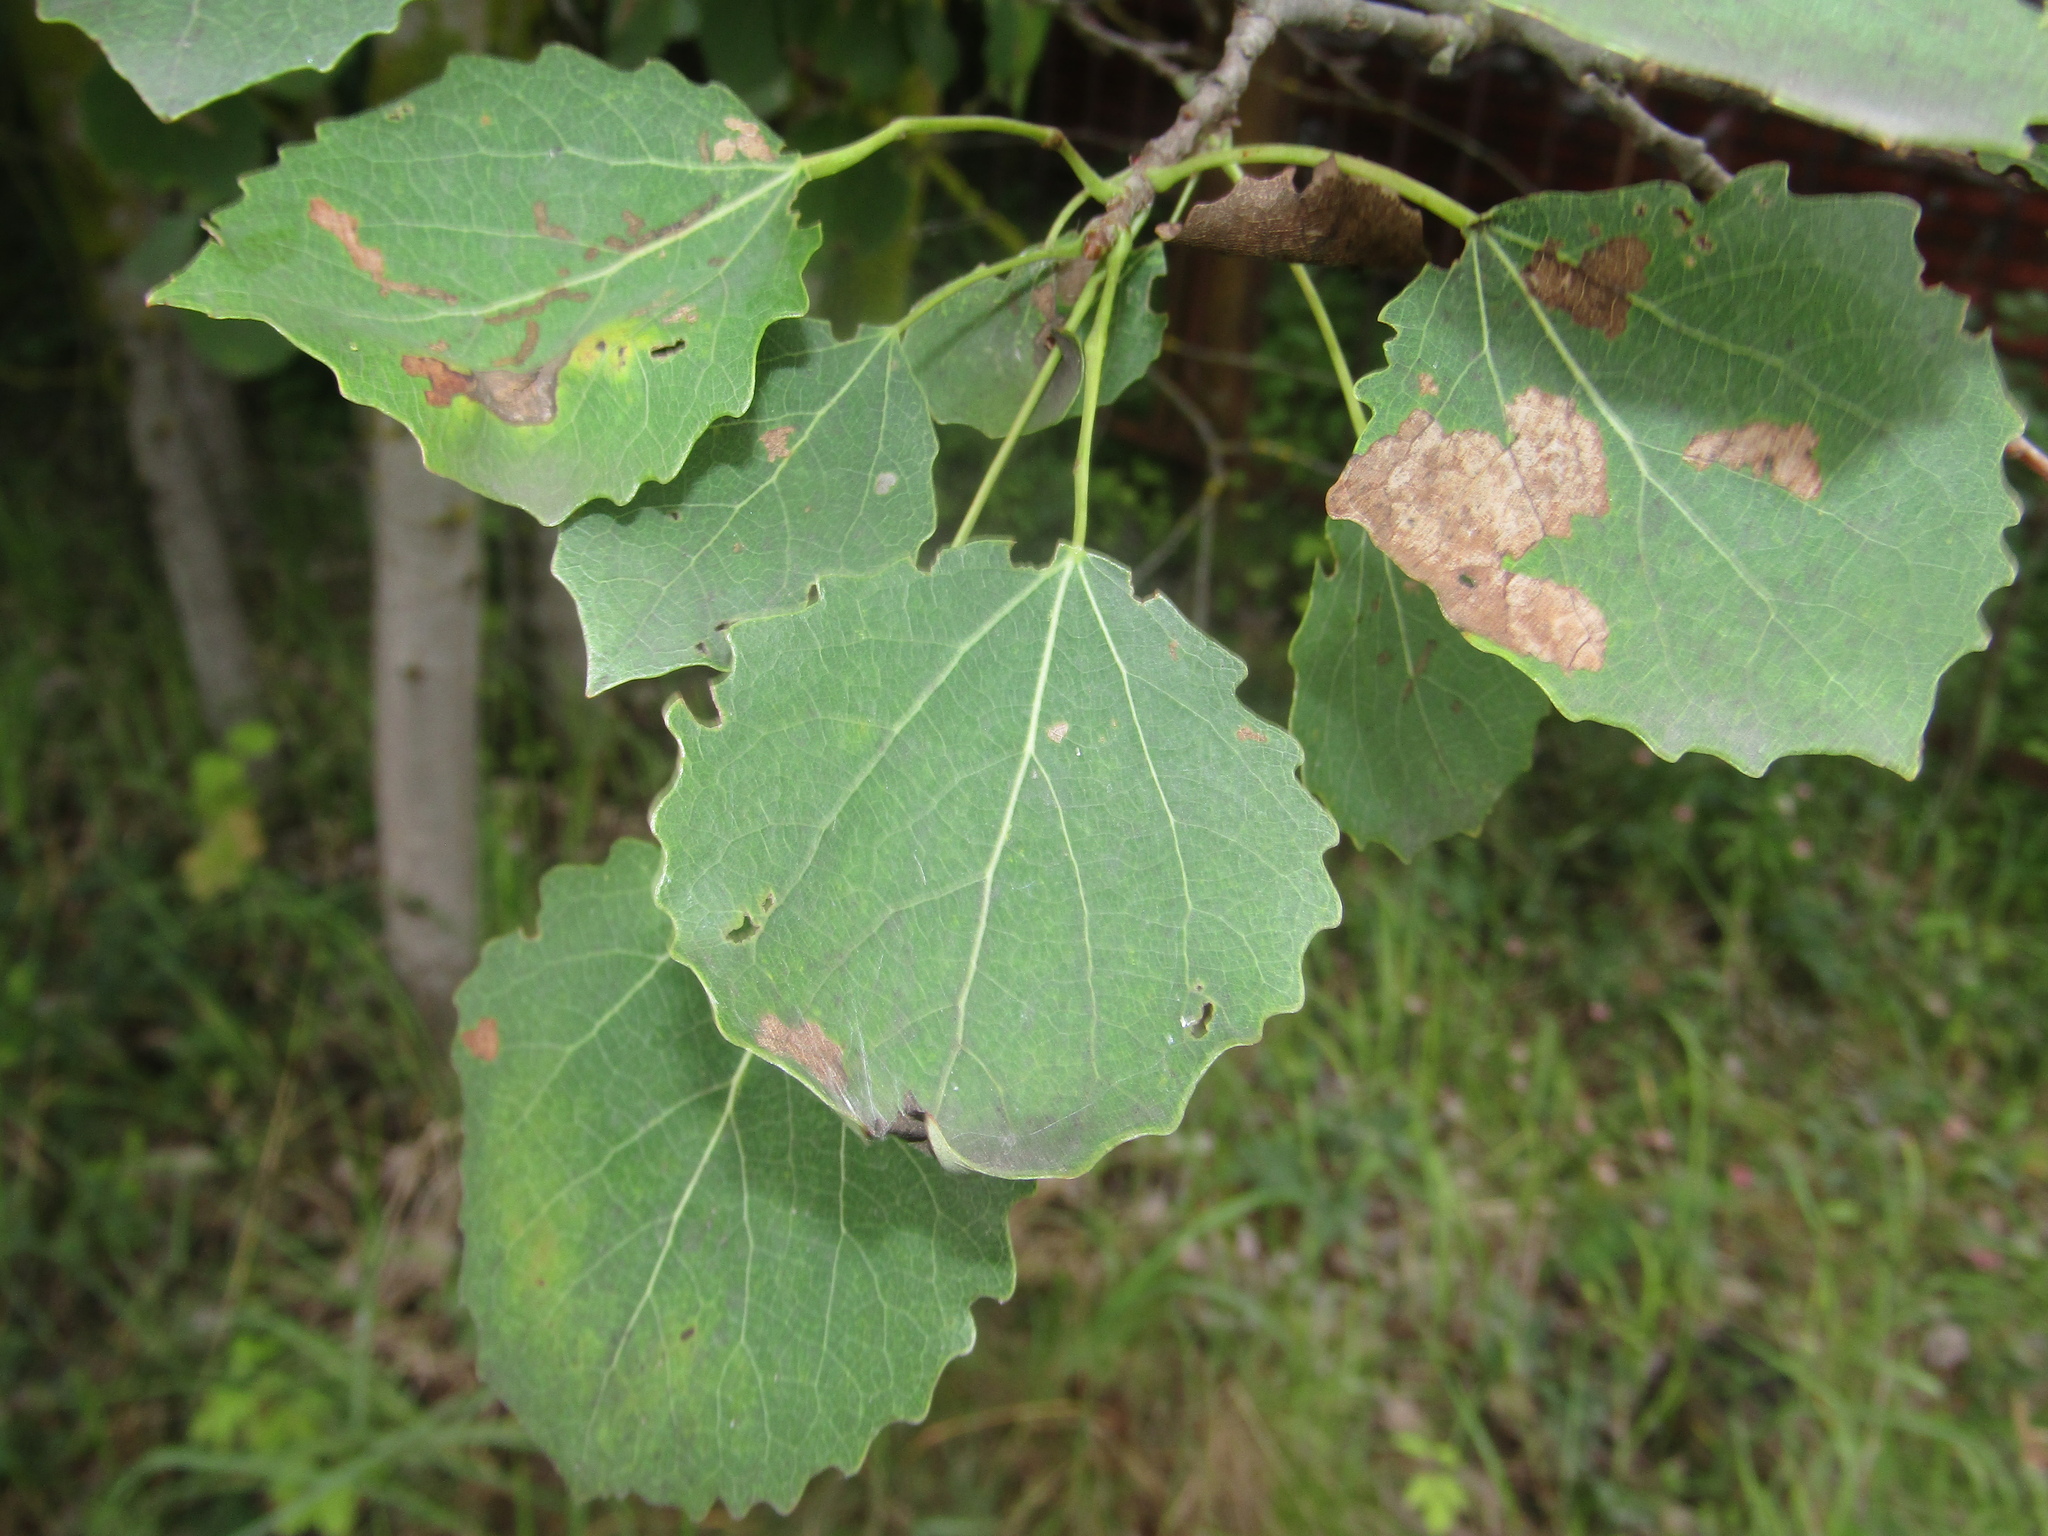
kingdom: Plantae
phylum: Tracheophyta
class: Magnoliopsida
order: Malpighiales
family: Salicaceae
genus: Populus
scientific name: Populus tremula
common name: European aspen
